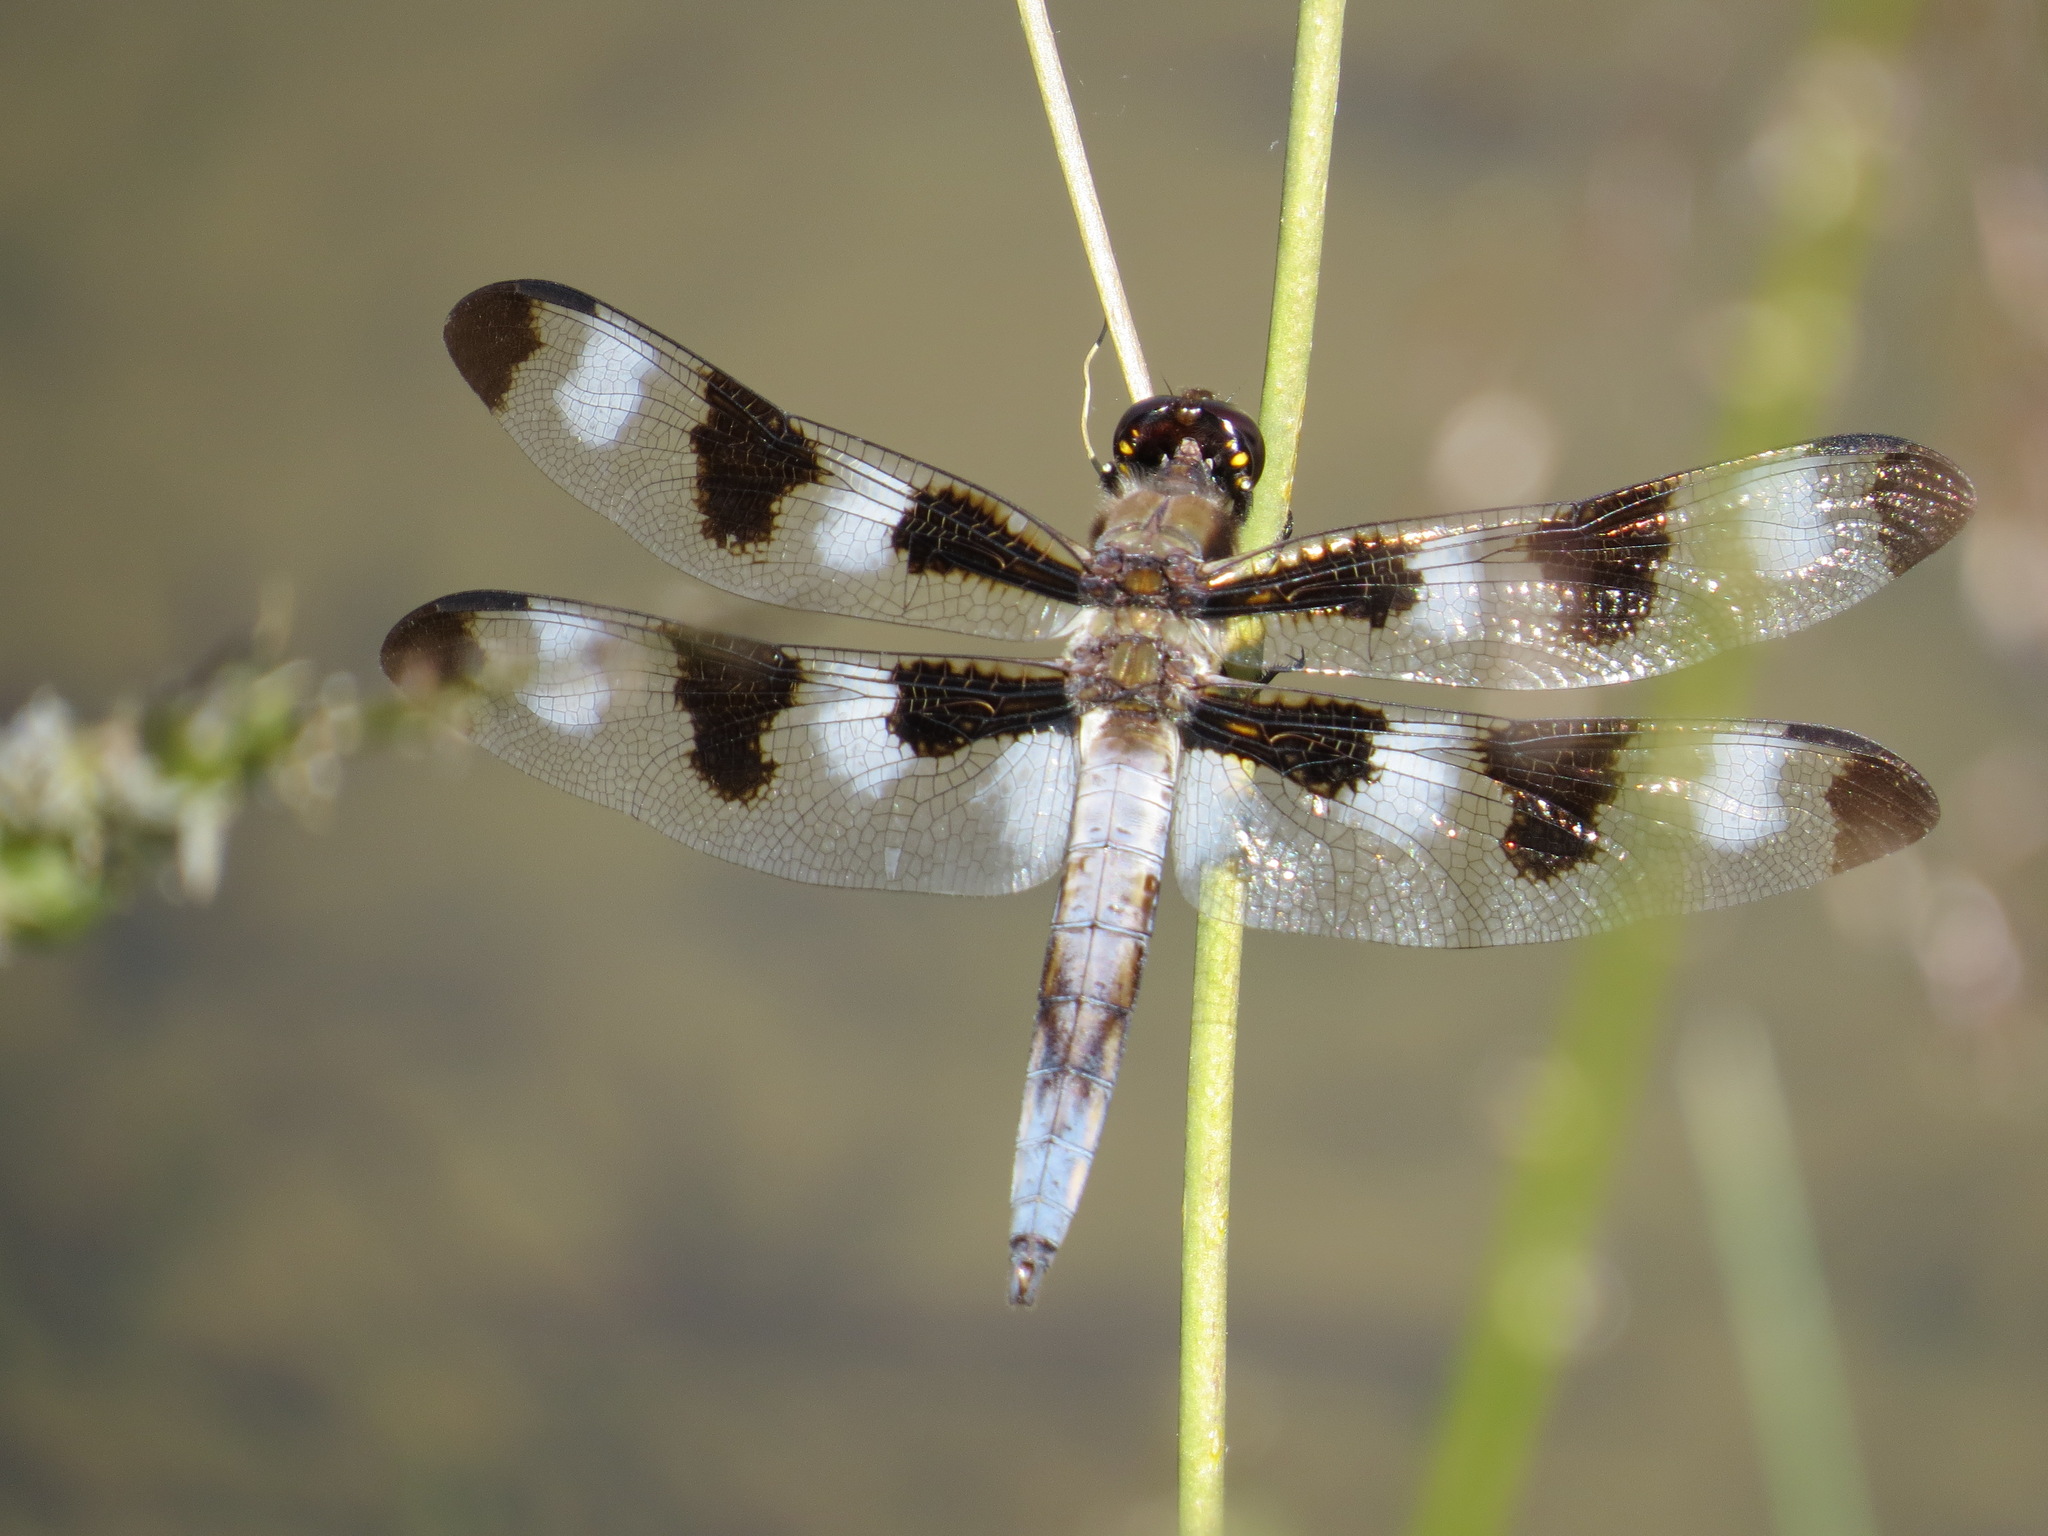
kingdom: Animalia
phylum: Arthropoda
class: Insecta
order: Odonata
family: Libellulidae
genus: Libellula
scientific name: Libellula pulchella
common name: Twelve-spotted skimmer
